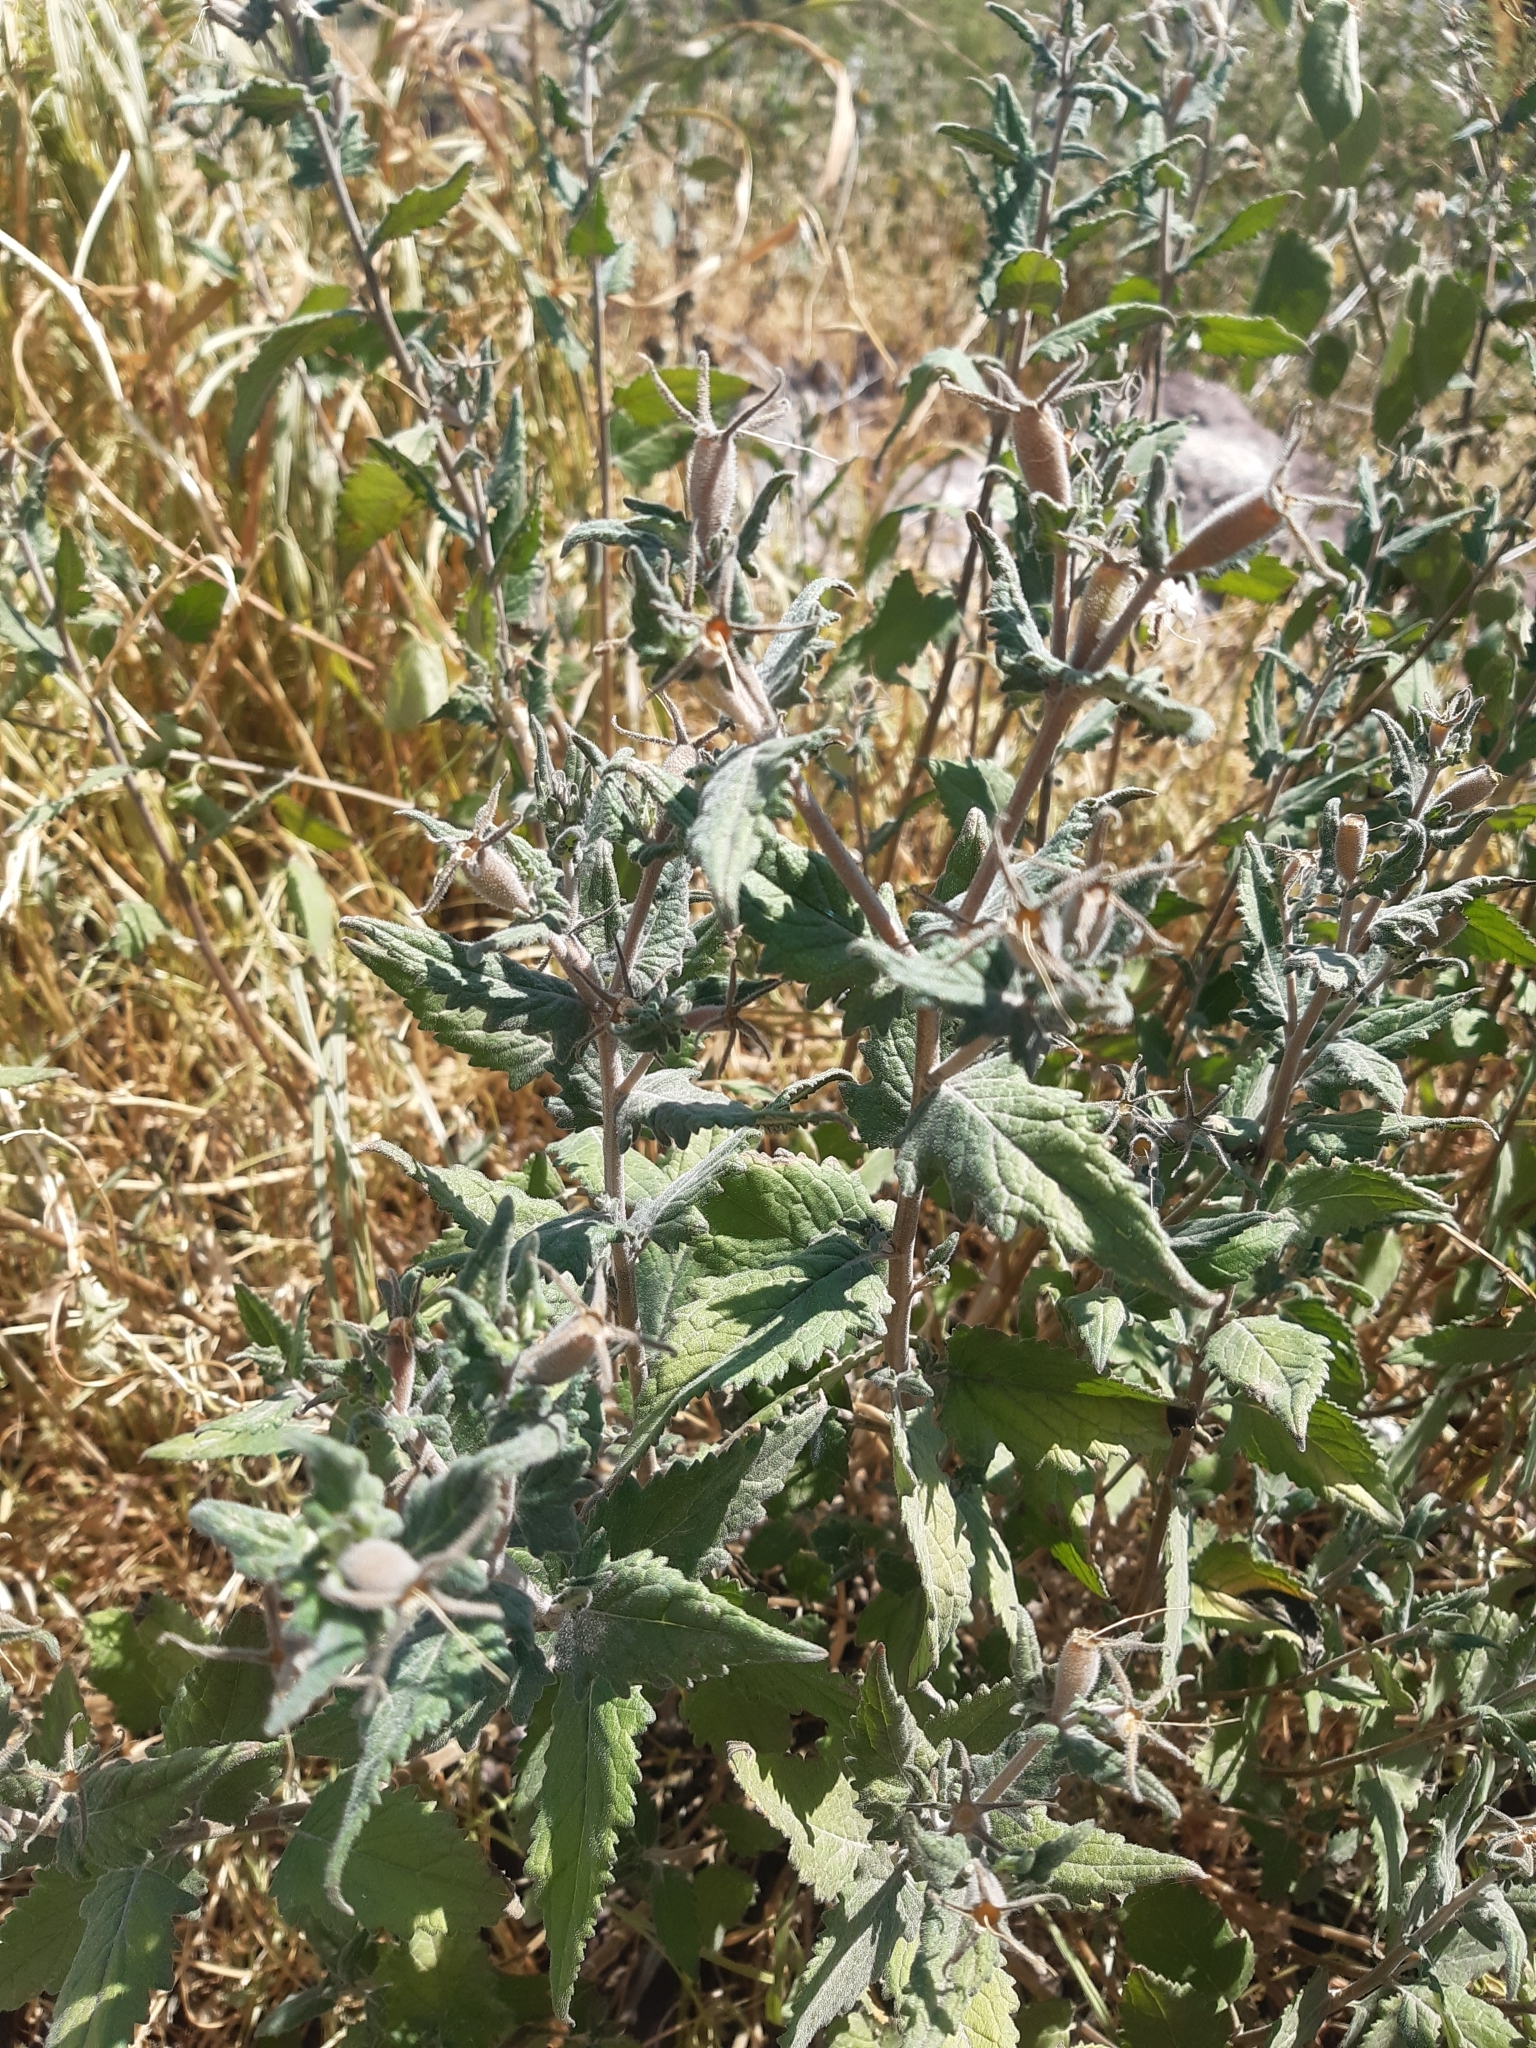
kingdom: Plantae
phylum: Tracheophyta
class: Magnoliopsida
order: Malvales
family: Malvaceae
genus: Abutilon
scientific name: Abutilon abutiloides
